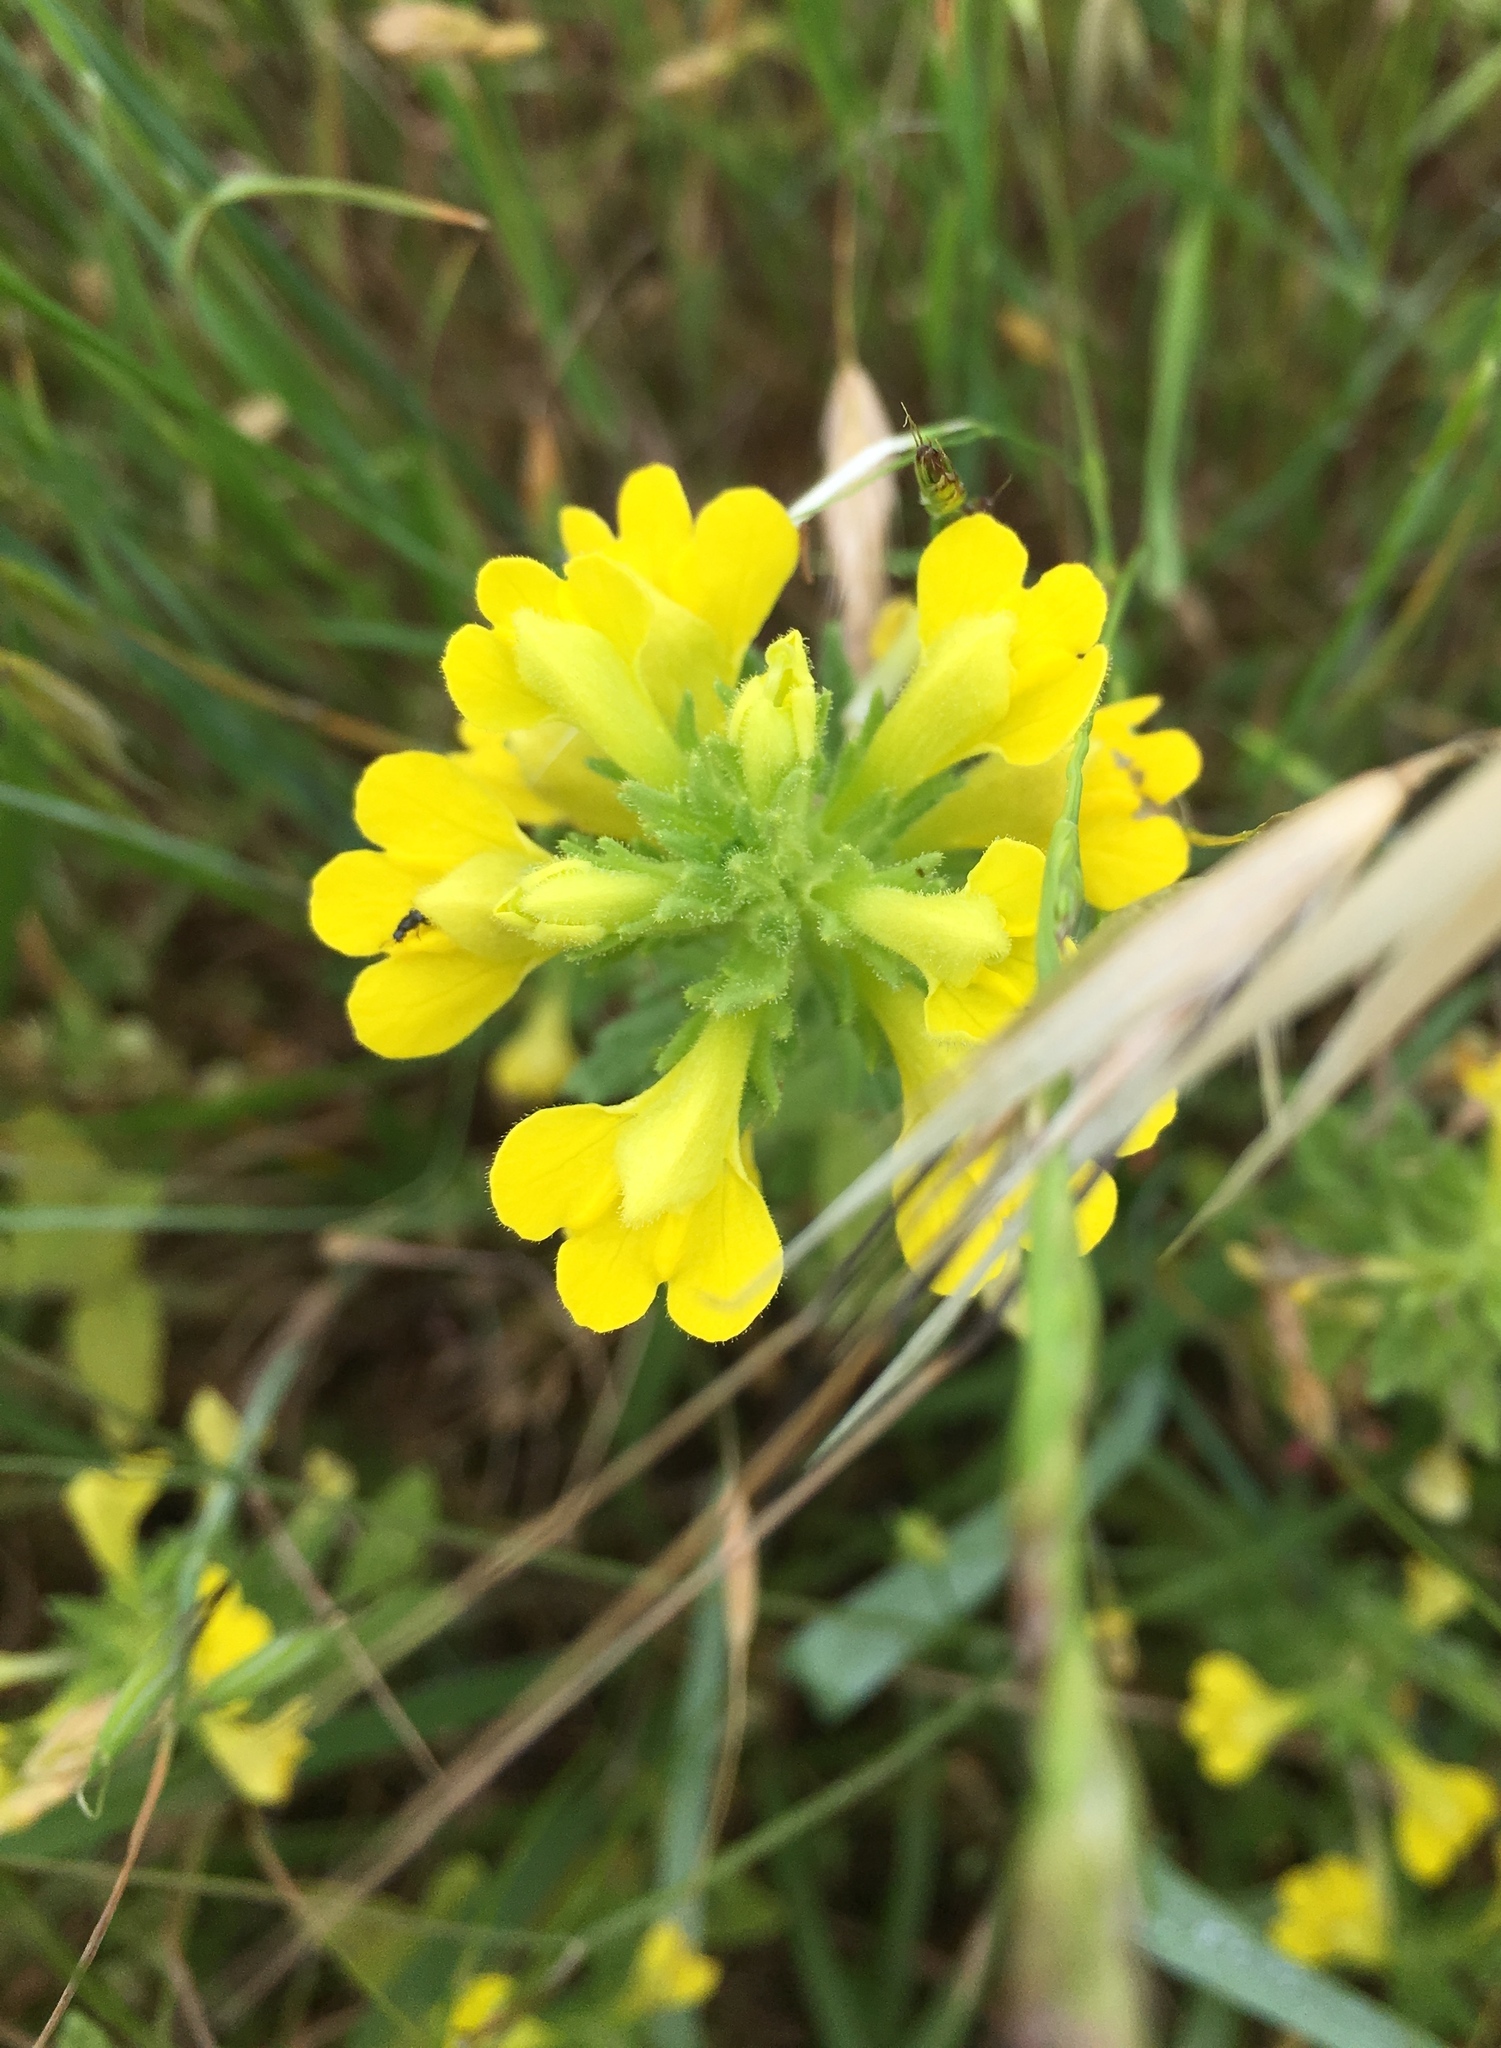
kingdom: Plantae
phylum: Tracheophyta
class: Magnoliopsida
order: Lamiales
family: Orobanchaceae
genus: Bellardia
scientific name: Bellardia viscosa
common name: Sticky parentucellia
